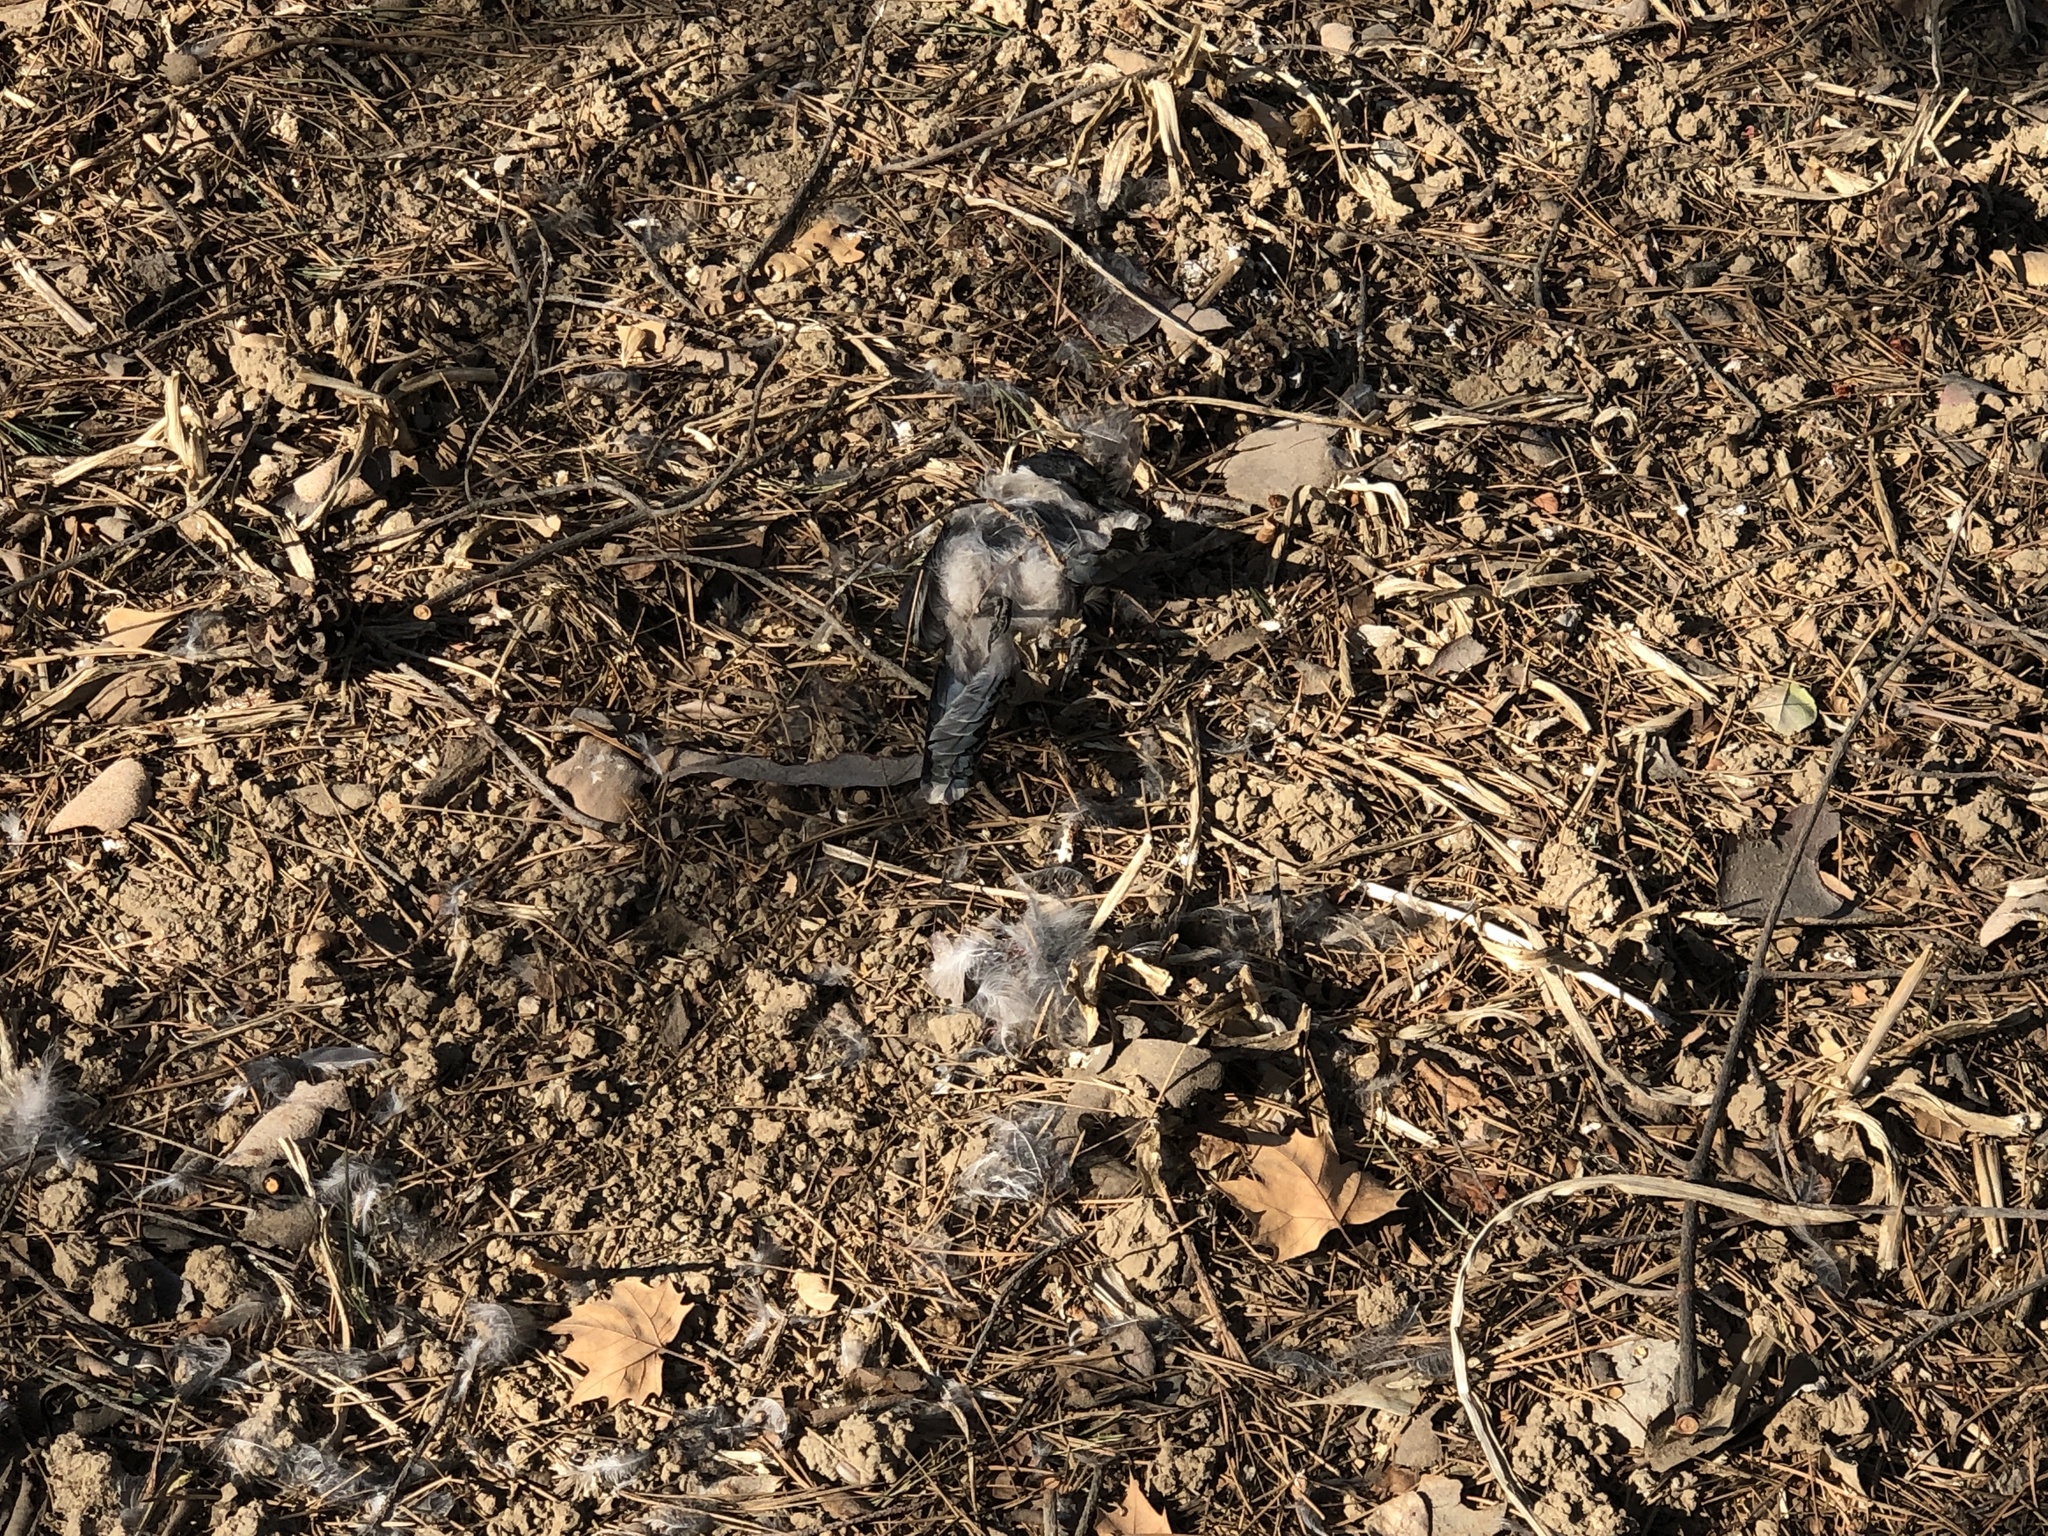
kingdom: Animalia
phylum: Chordata
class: Aves
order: Passeriformes
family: Corvidae
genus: Cyanopica
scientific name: Cyanopica cyanus
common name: Azure-winged magpie
